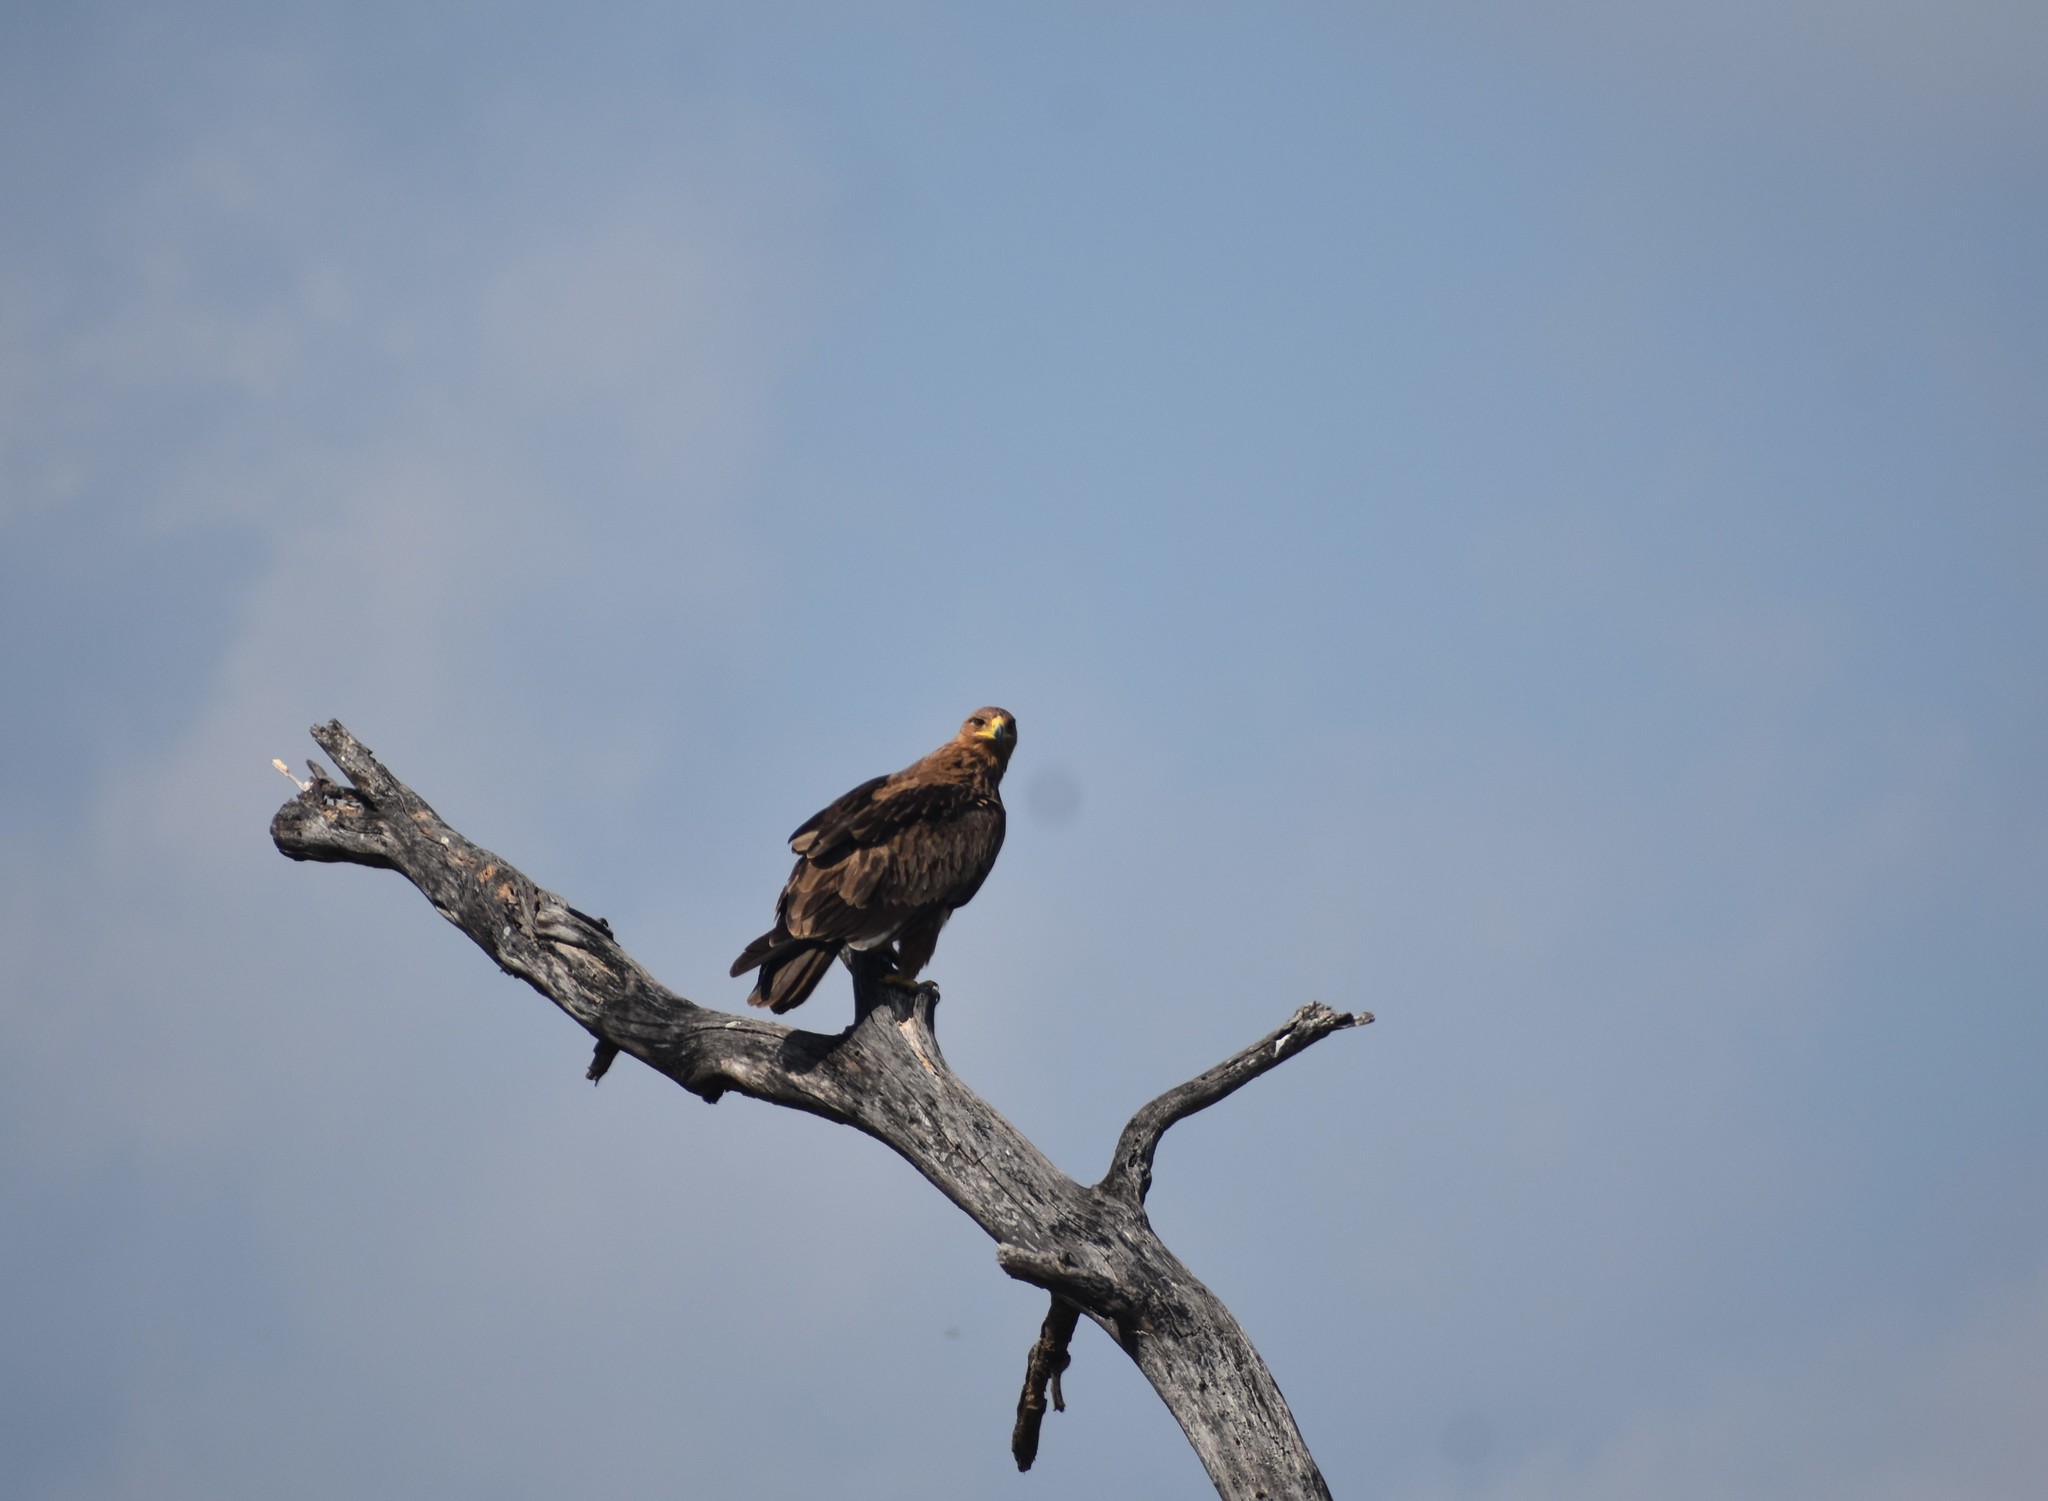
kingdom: Animalia
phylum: Chordata
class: Aves
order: Accipitriformes
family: Accipitridae
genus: Aquila
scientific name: Aquila rapax
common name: Tawny eagle
